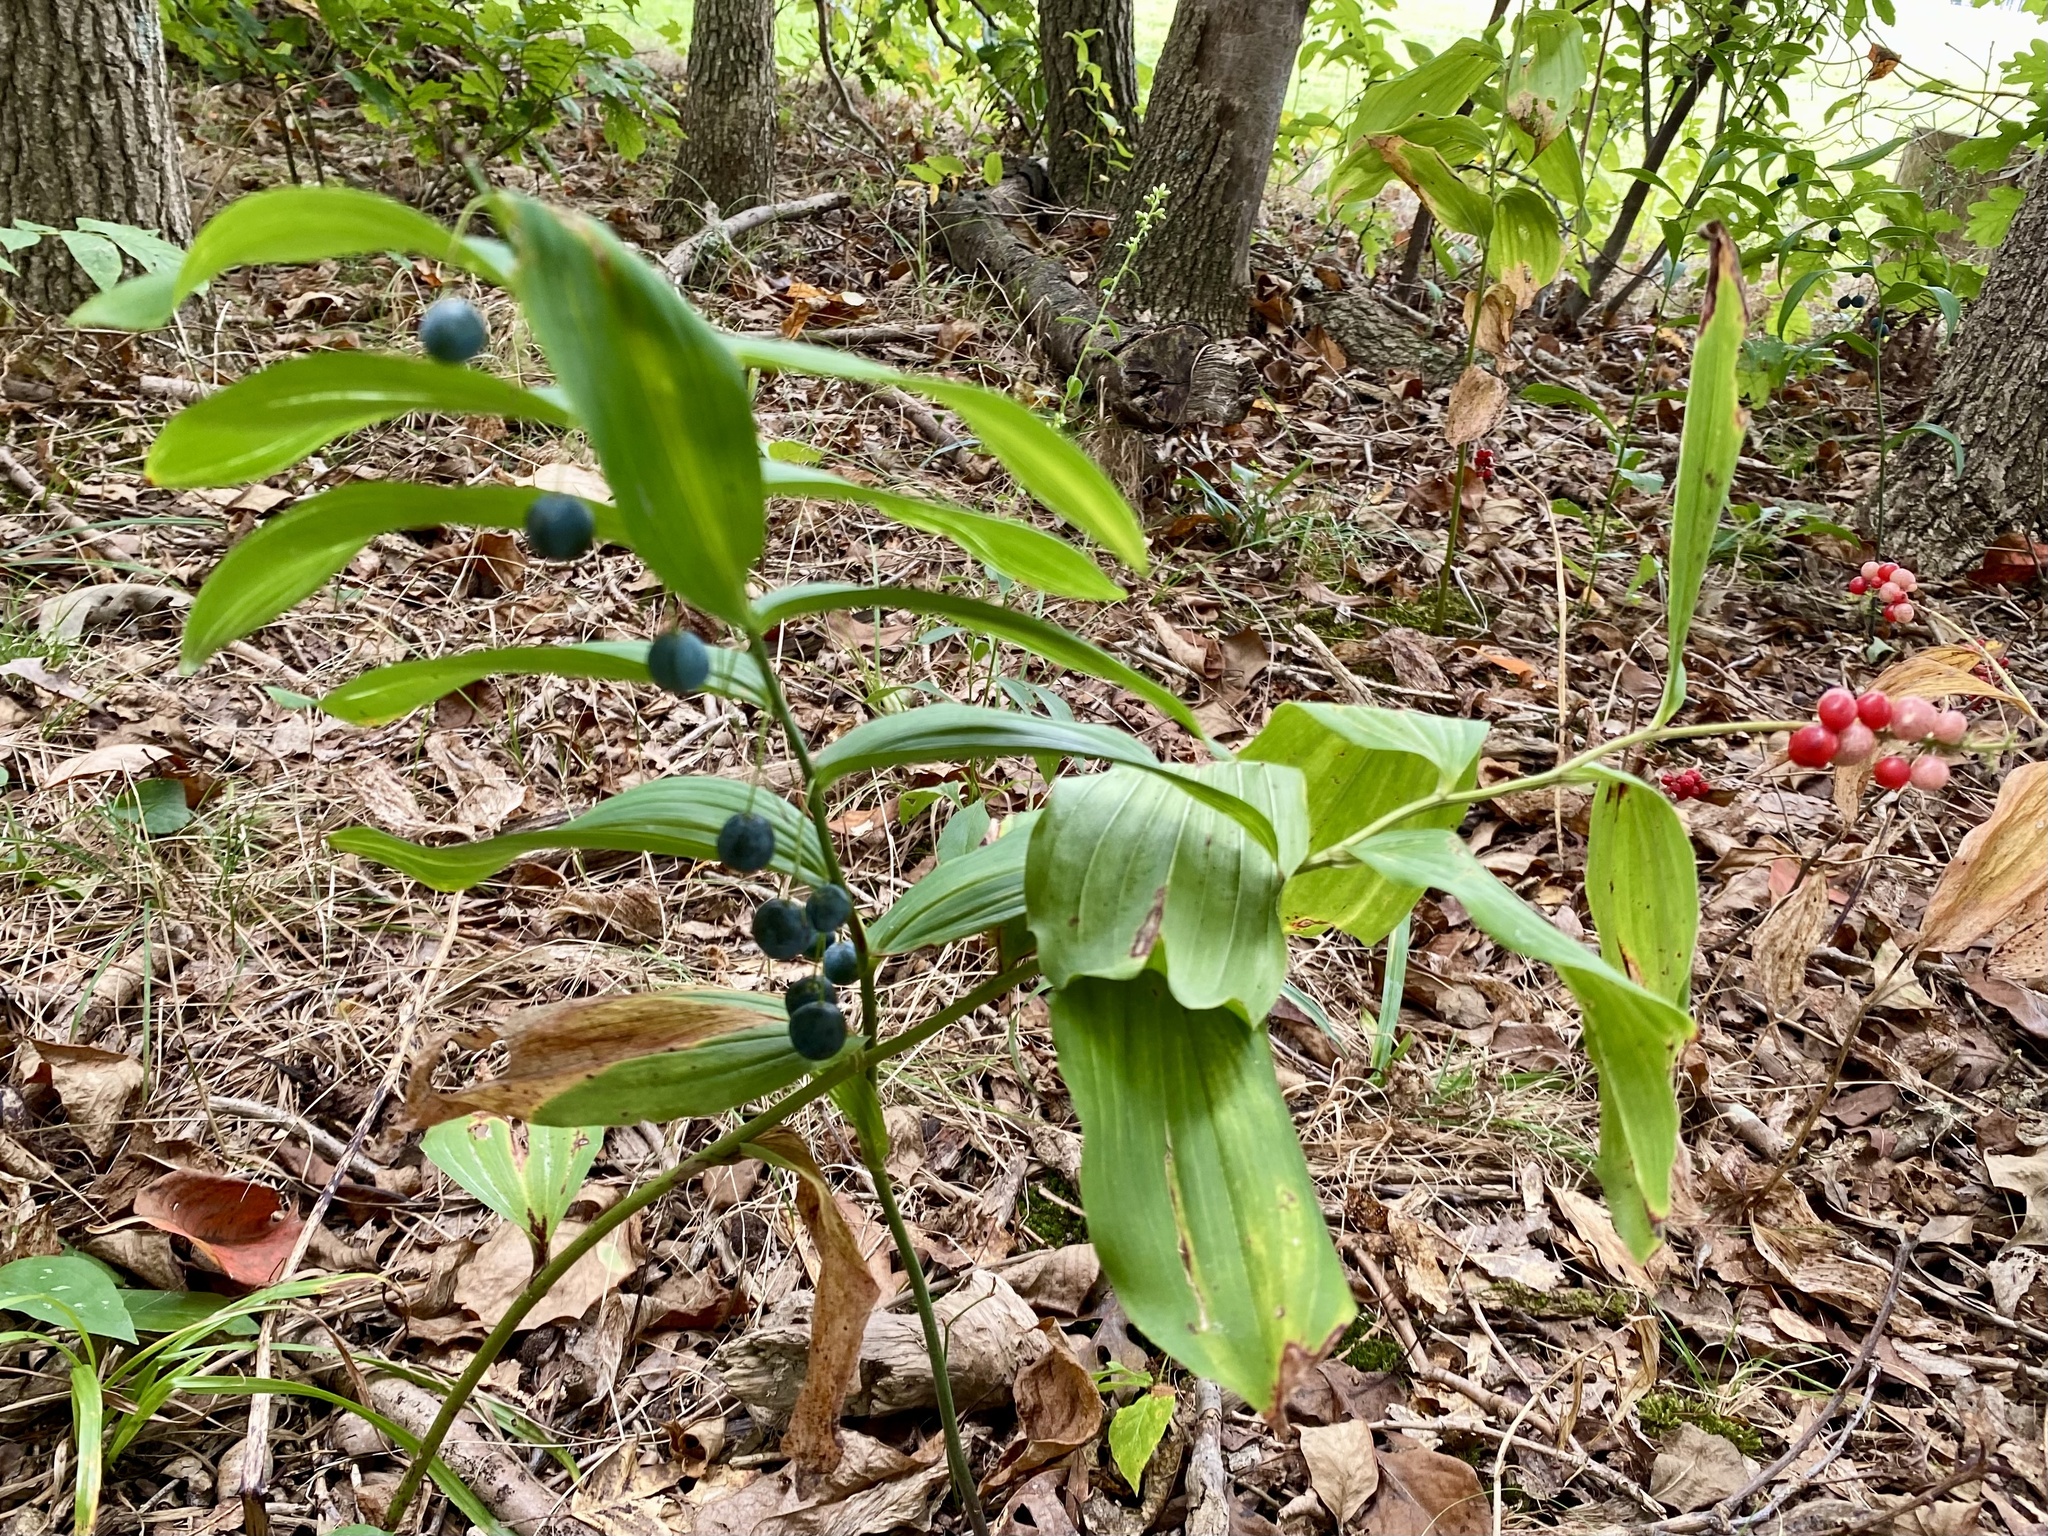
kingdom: Plantae
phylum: Tracheophyta
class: Liliopsida
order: Asparagales
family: Asparagaceae
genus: Maianthemum
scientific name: Maianthemum racemosum
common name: False spikenard
